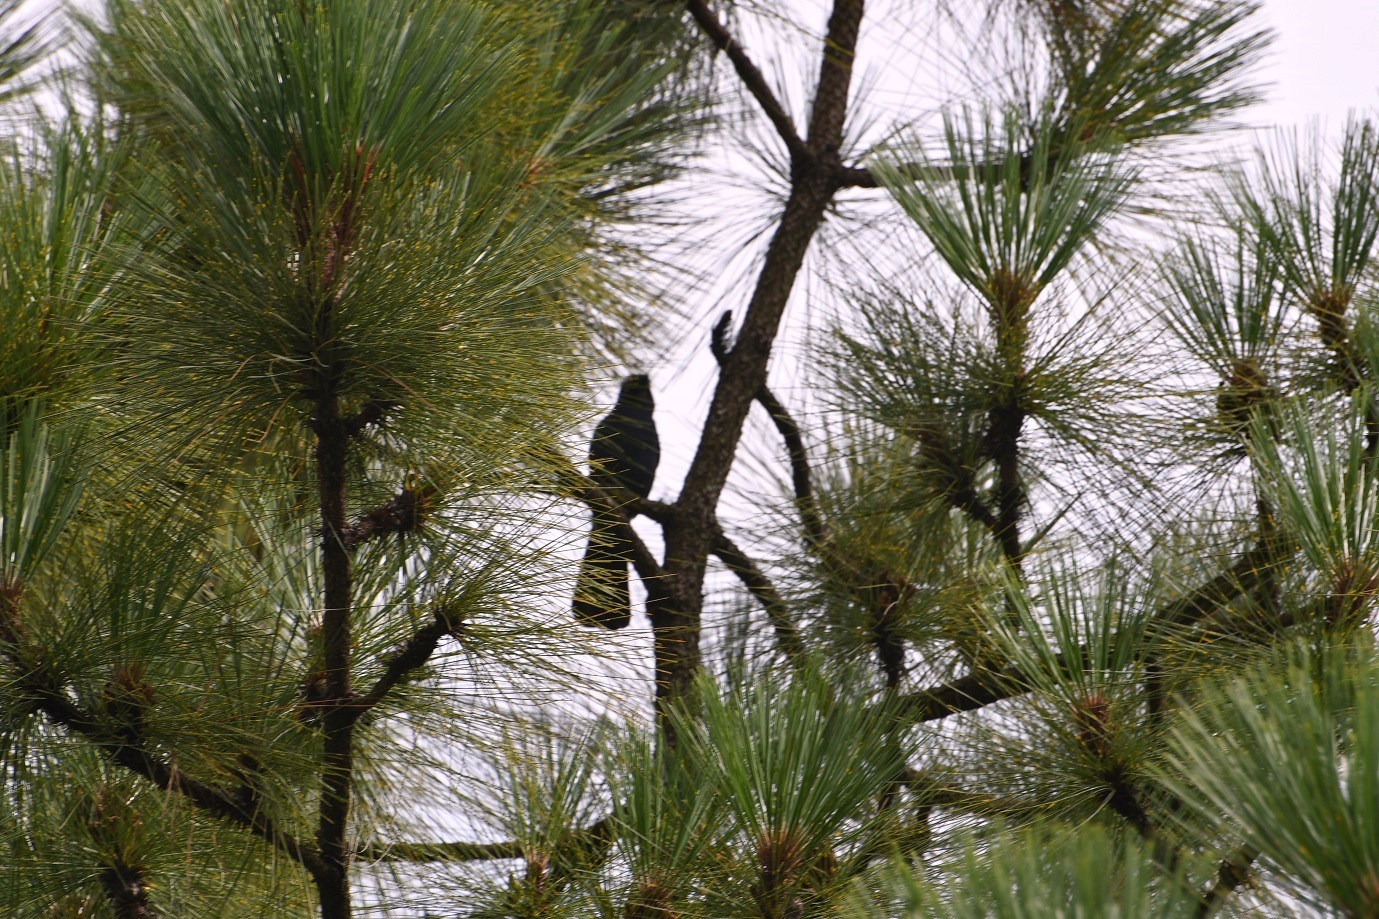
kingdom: Animalia
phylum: Chordata
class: Aves
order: Passeriformes
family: Corvidae
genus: Cyanocitta
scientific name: Cyanocitta stelleri
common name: Steller's jay
